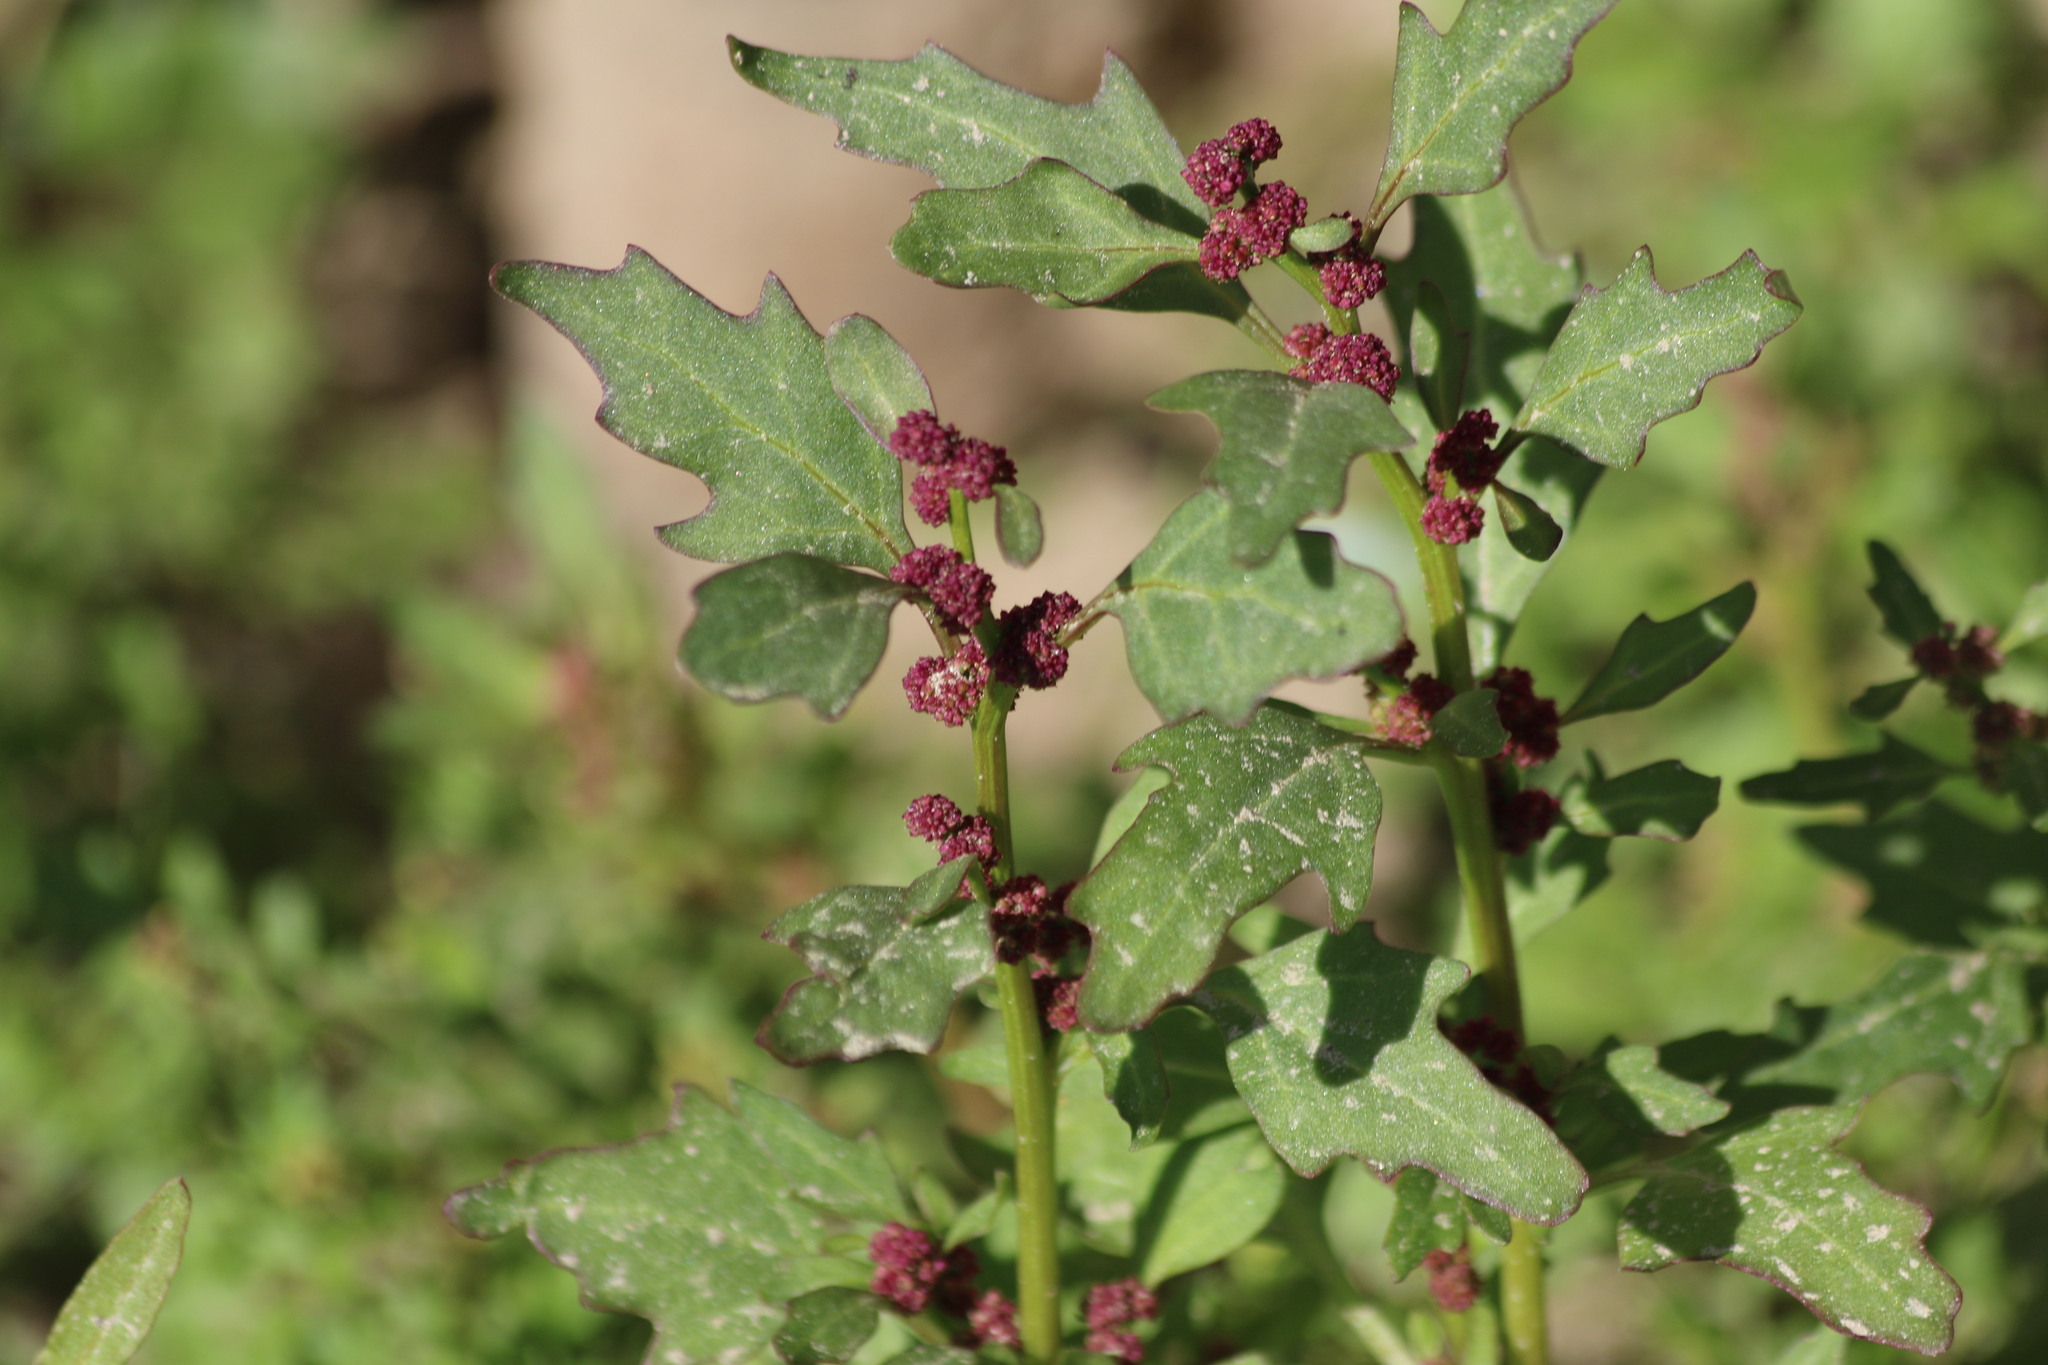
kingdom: Plantae
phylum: Tracheophyta
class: Magnoliopsida
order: Caryophyllales
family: Amaranthaceae
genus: Oxybasis
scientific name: Oxybasis rubra
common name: Red goosefoot
